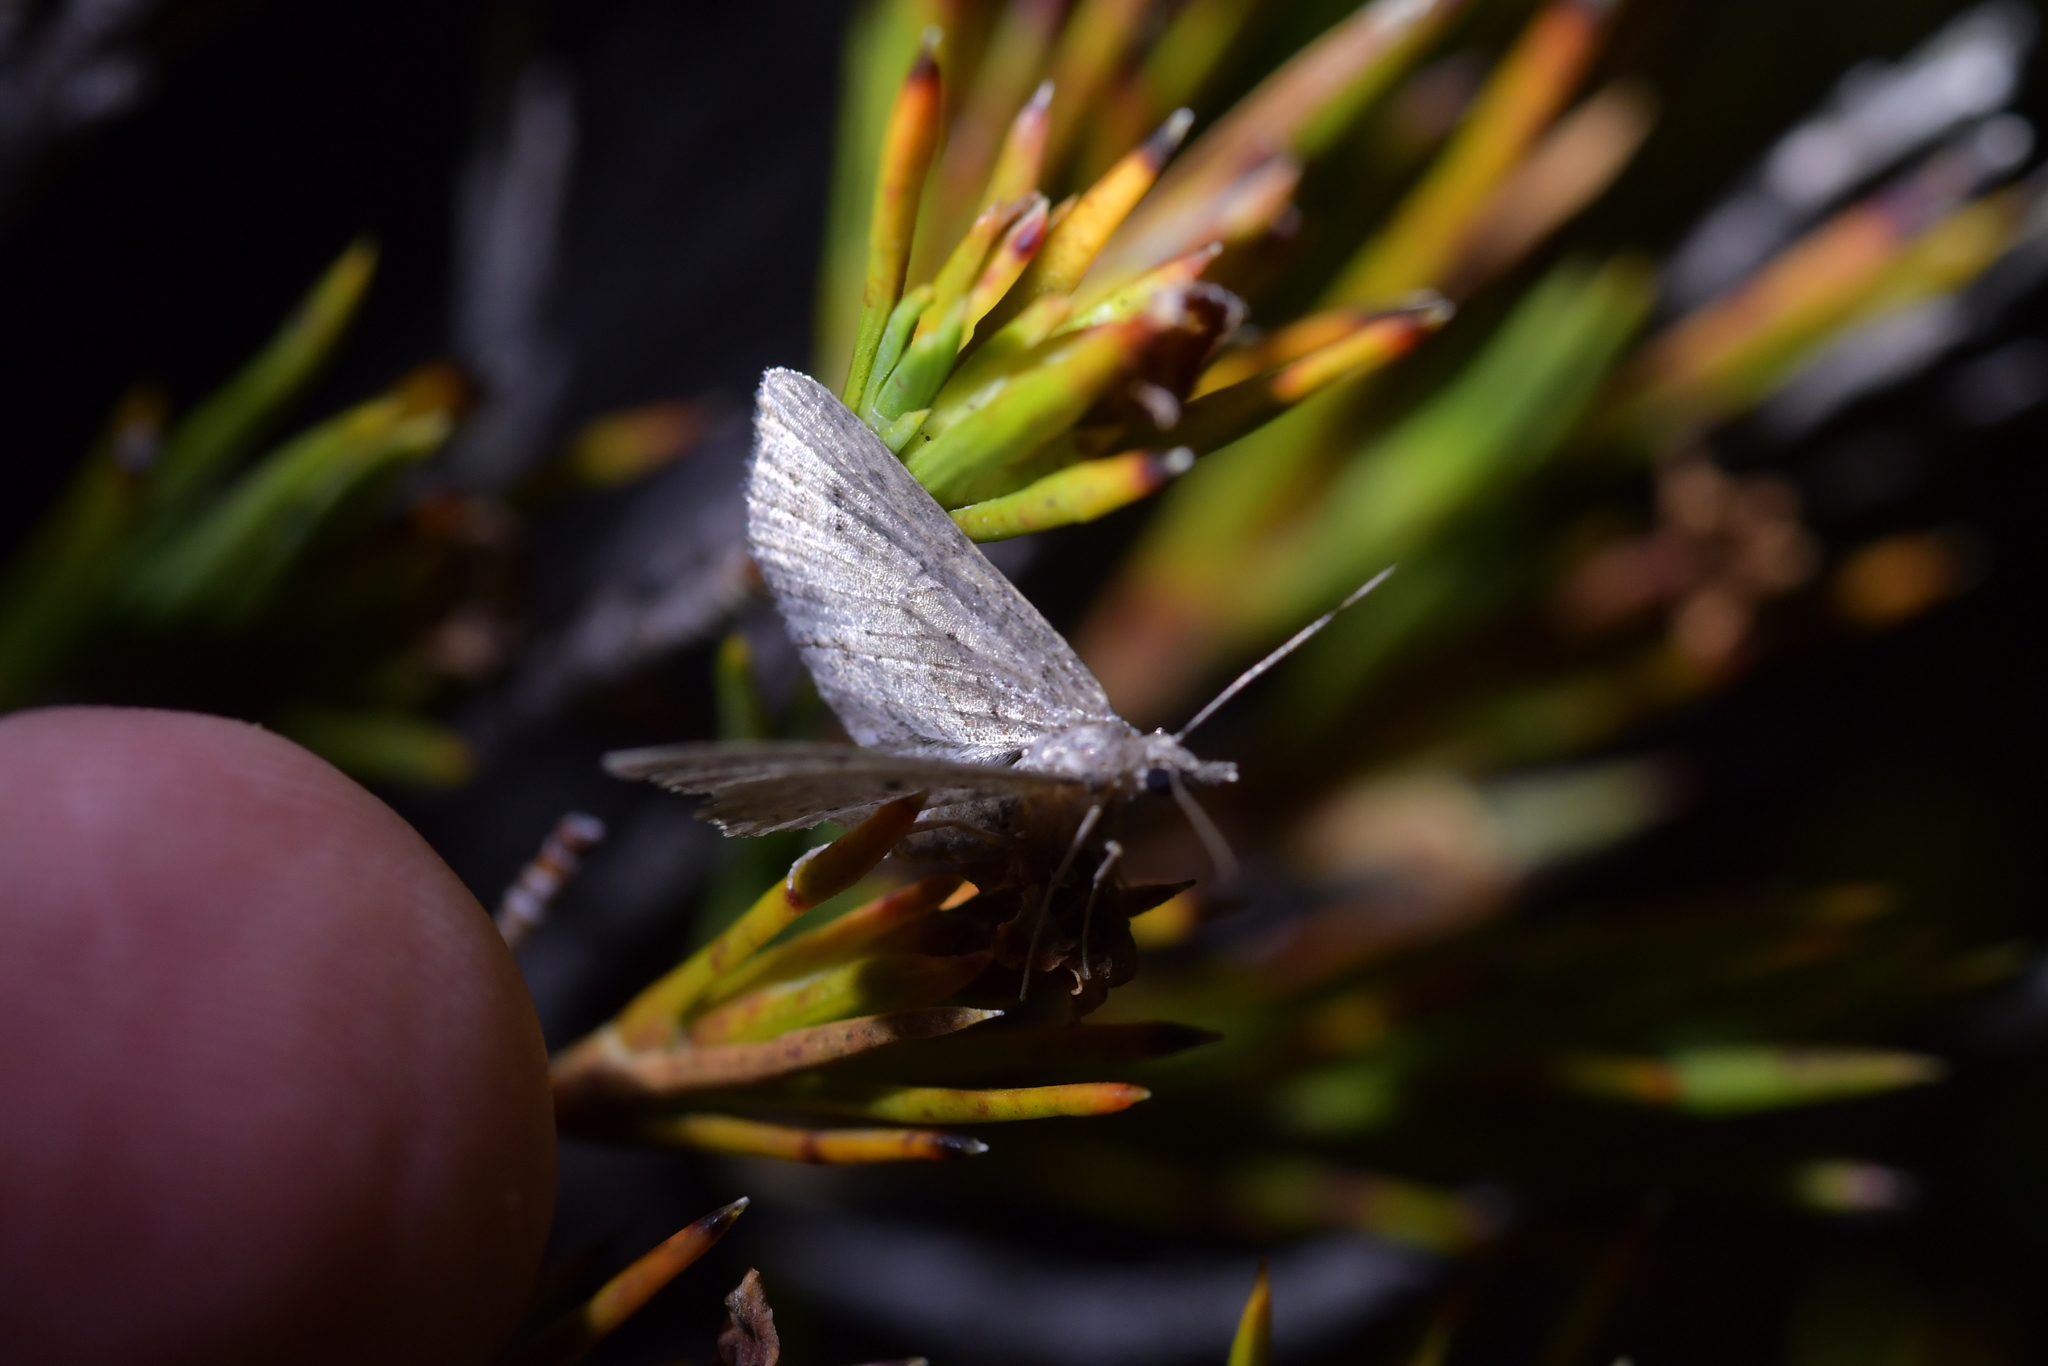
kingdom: Animalia
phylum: Arthropoda
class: Insecta
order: Lepidoptera
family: Geometridae
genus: Pasiphila
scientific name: Pasiphila humilis
